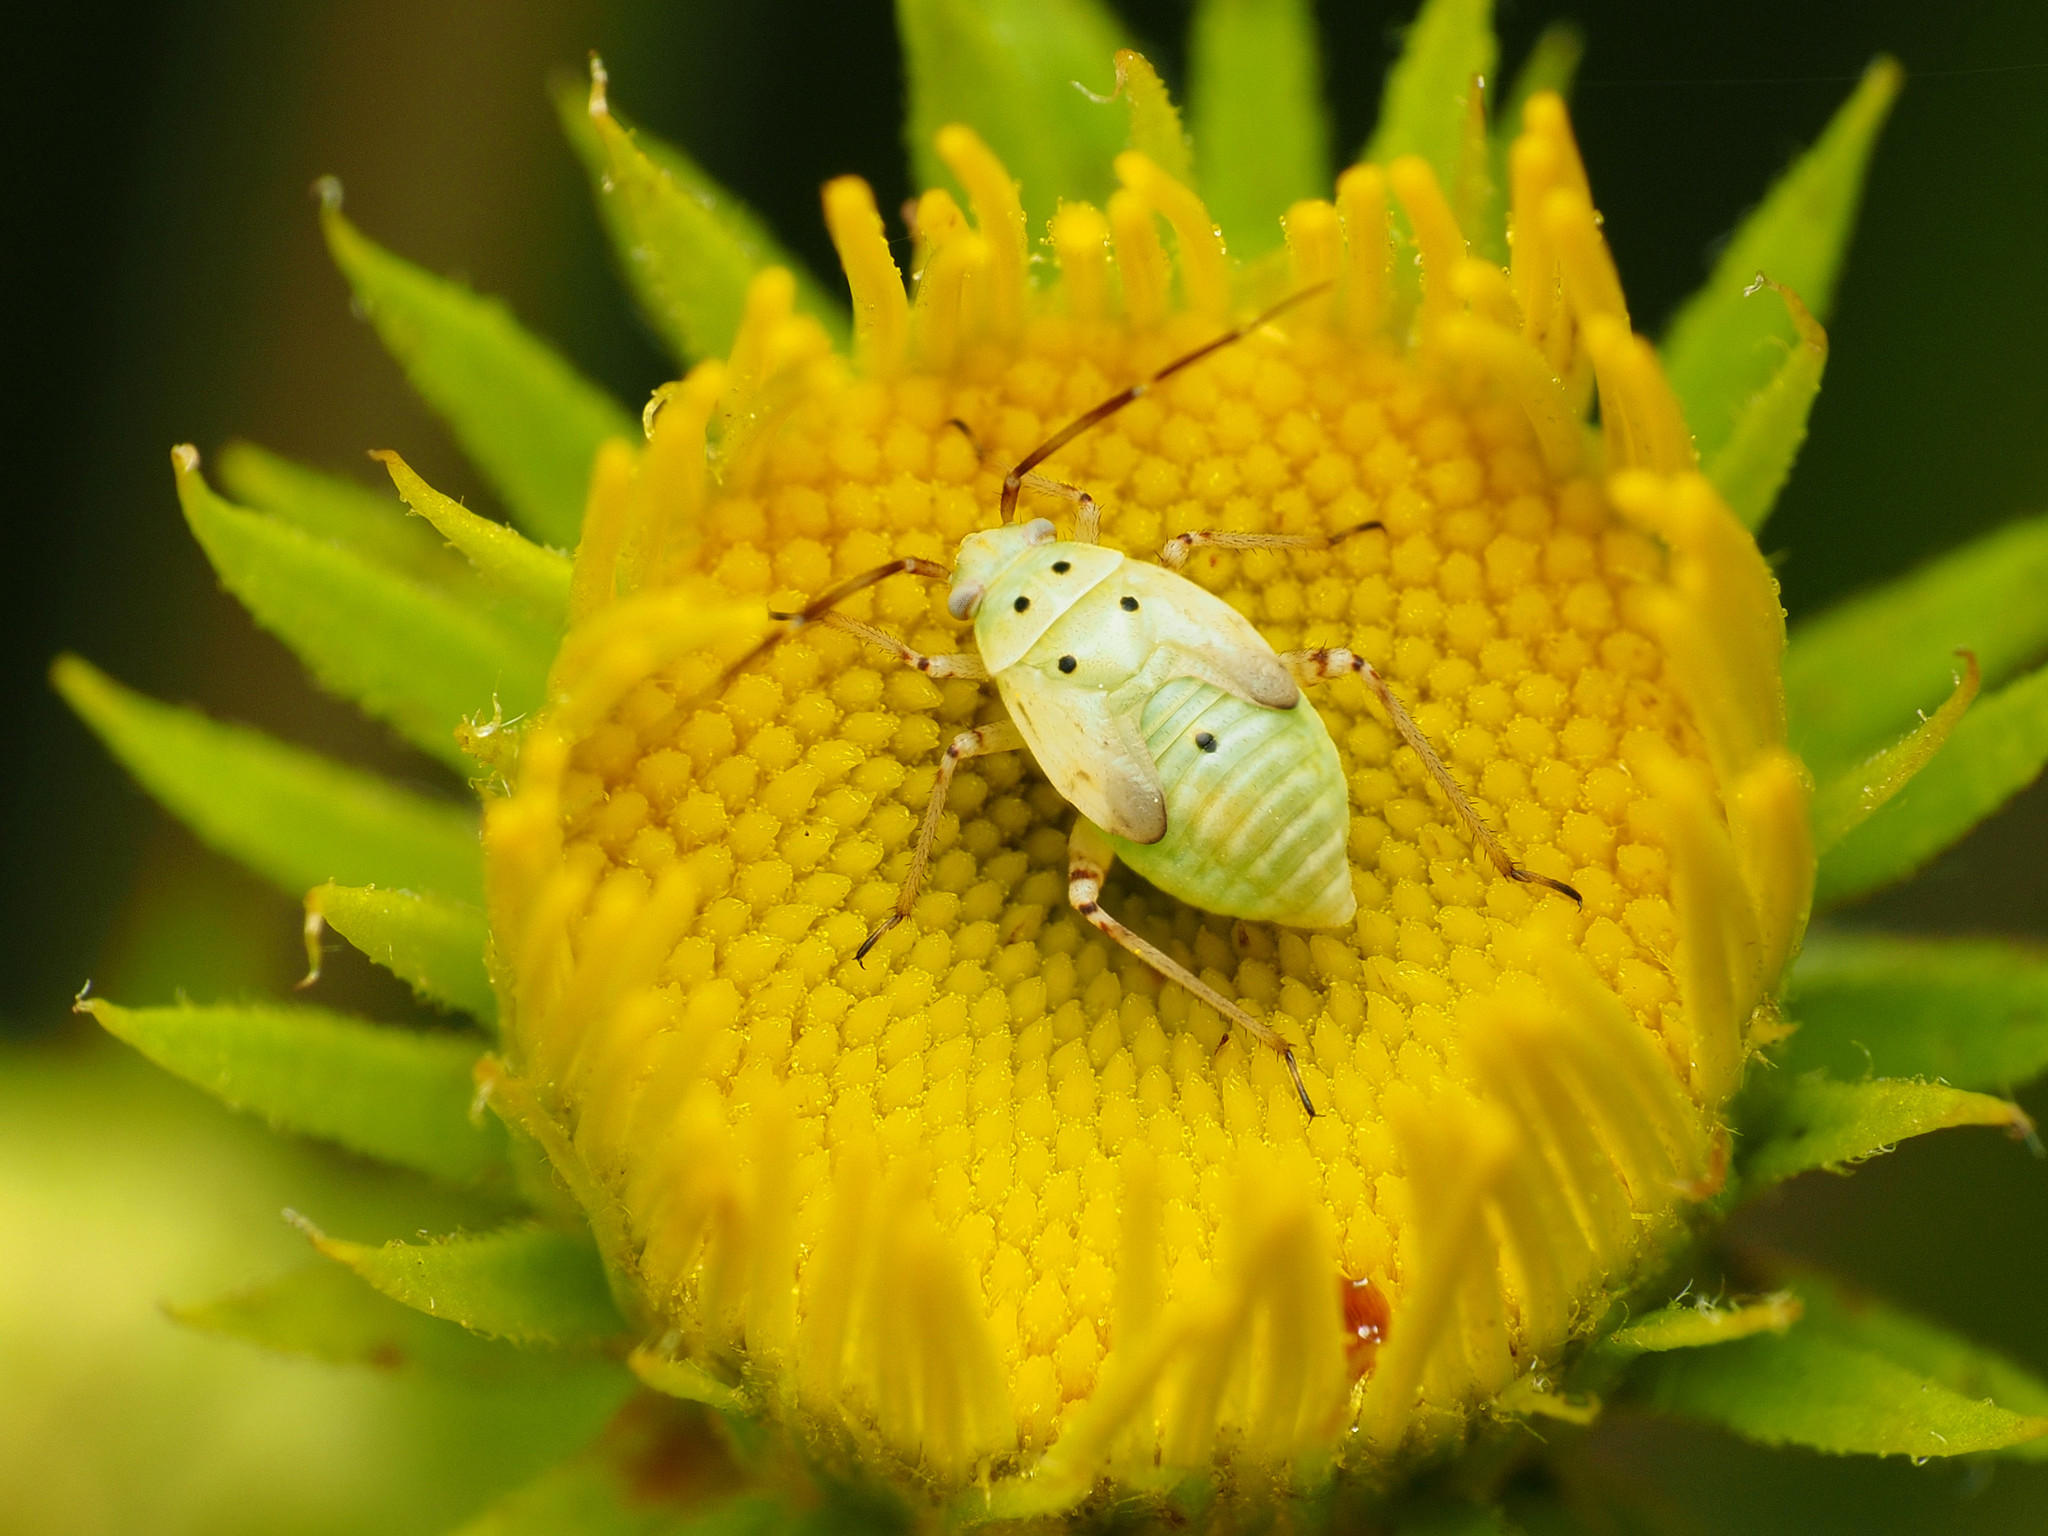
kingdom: Animalia
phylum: Arthropoda
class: Insecta
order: Hemiptera
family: Miridae
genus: Lygus
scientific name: Lygus lineolaris
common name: North american tarnished plant bug
